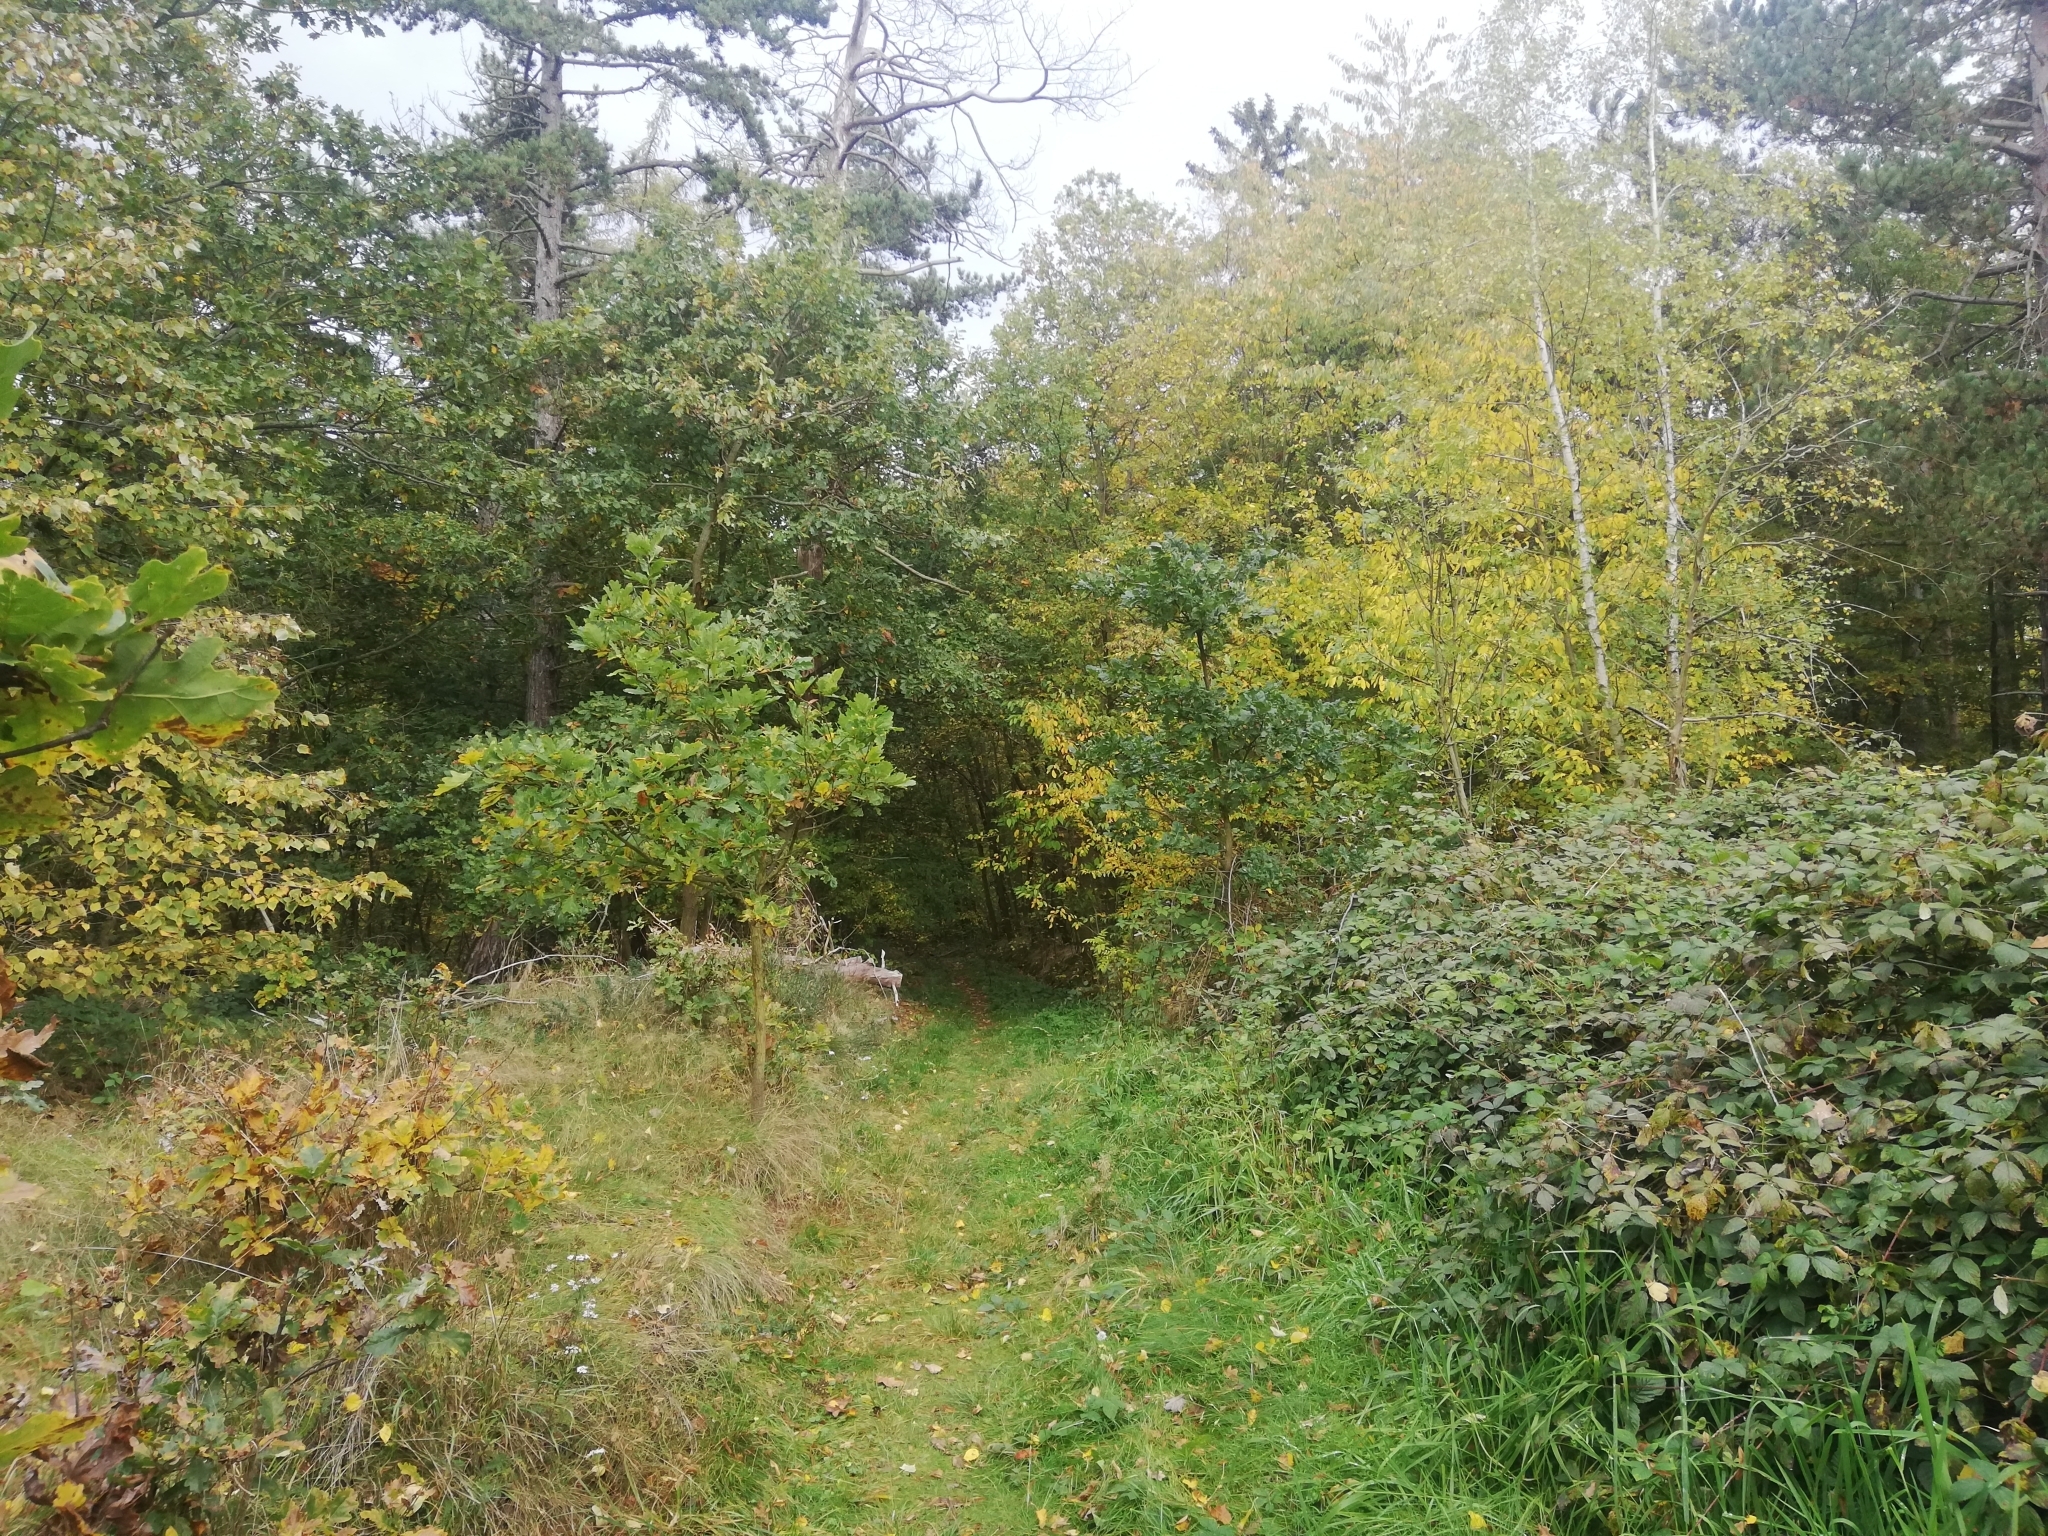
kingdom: Animalia
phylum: Arthropoda
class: Insecta
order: Coleoptera
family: Chrysomelidae
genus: Galeruca
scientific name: Galeruca tanaceti
